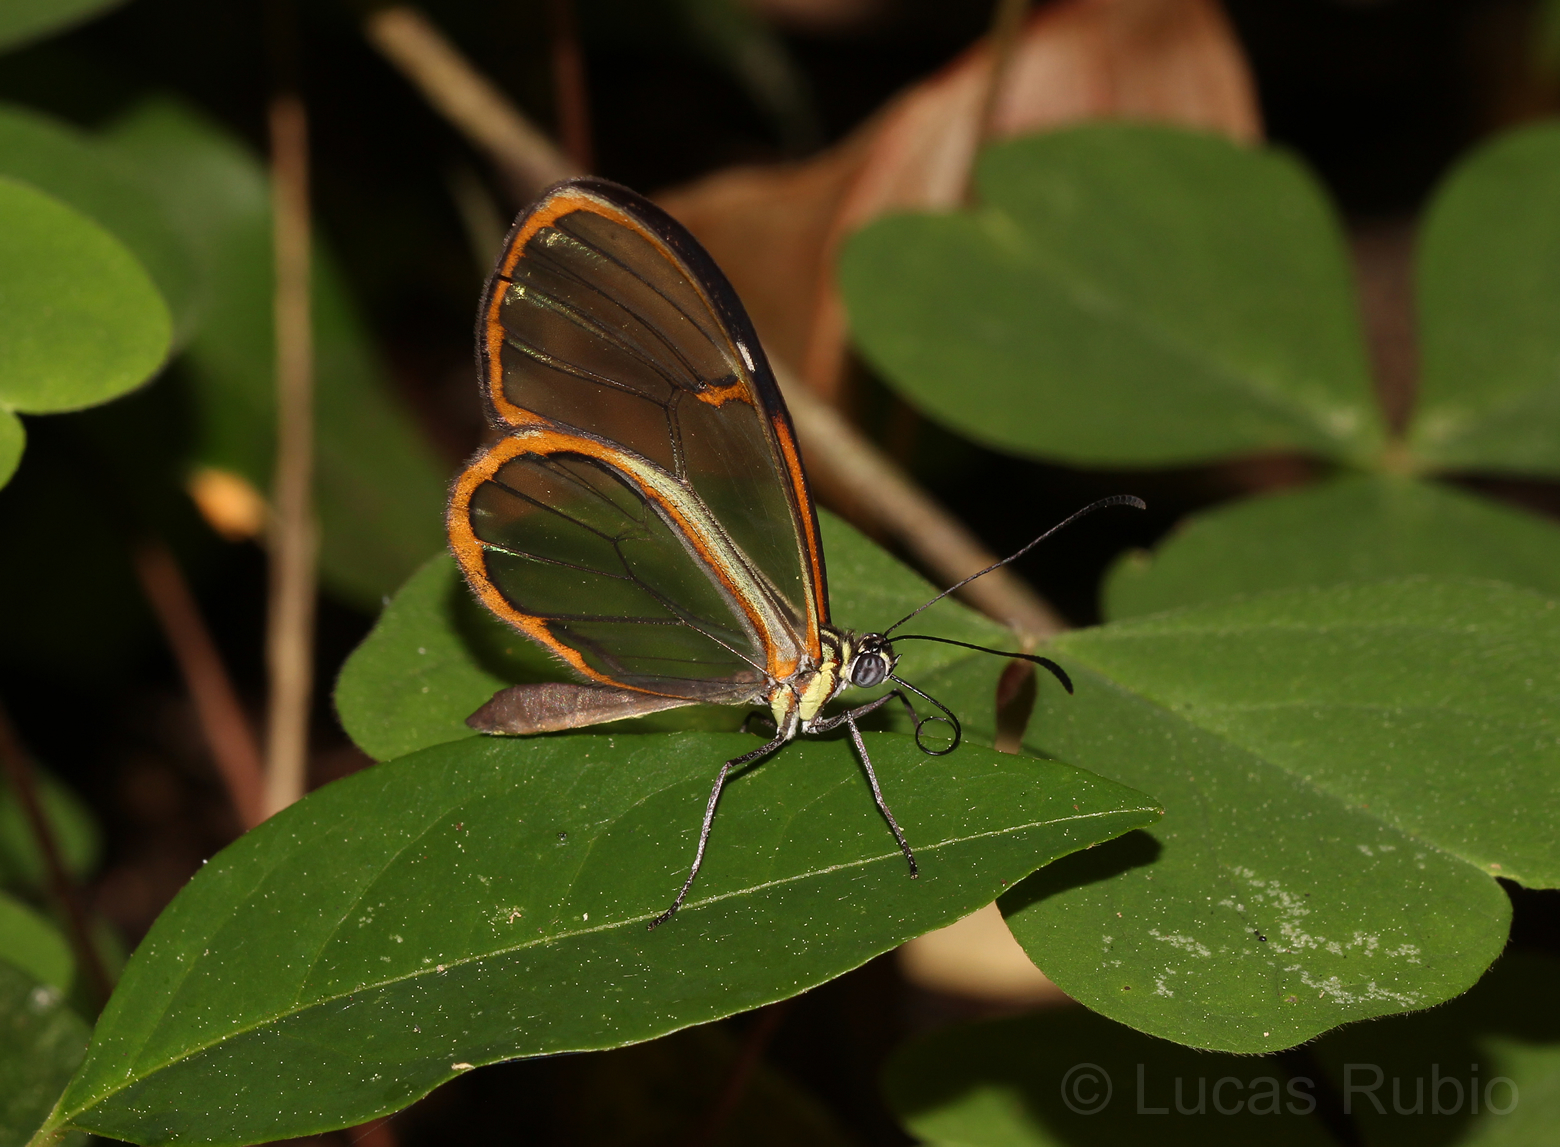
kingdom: Animalia
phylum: Arthropoda
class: Insecta
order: Lepidoptera
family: Nymphalidae
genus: Episcada
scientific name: Episcada hymenaea
